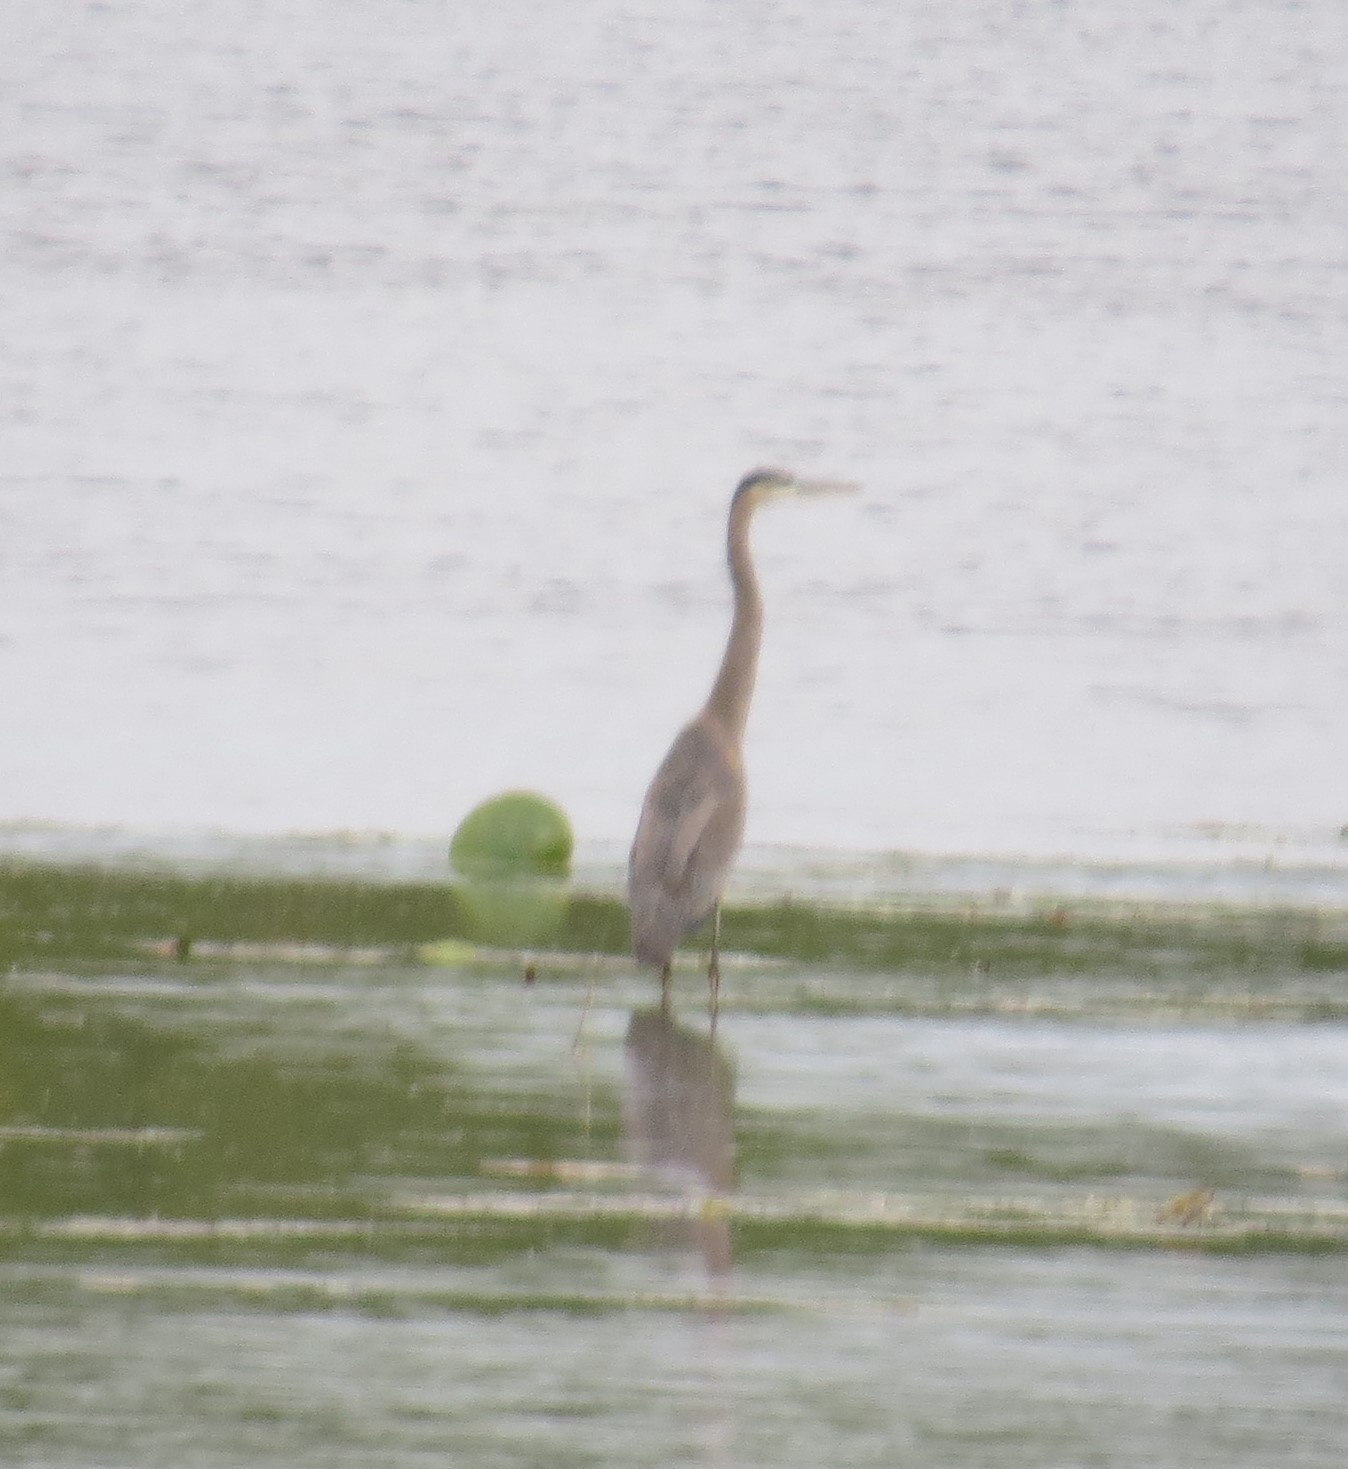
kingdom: Animalia
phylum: Chordata
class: Aves
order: Pelecaniformes
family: Ardeidae
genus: Ardea
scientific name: Ardea herodias
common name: Great blue heron
